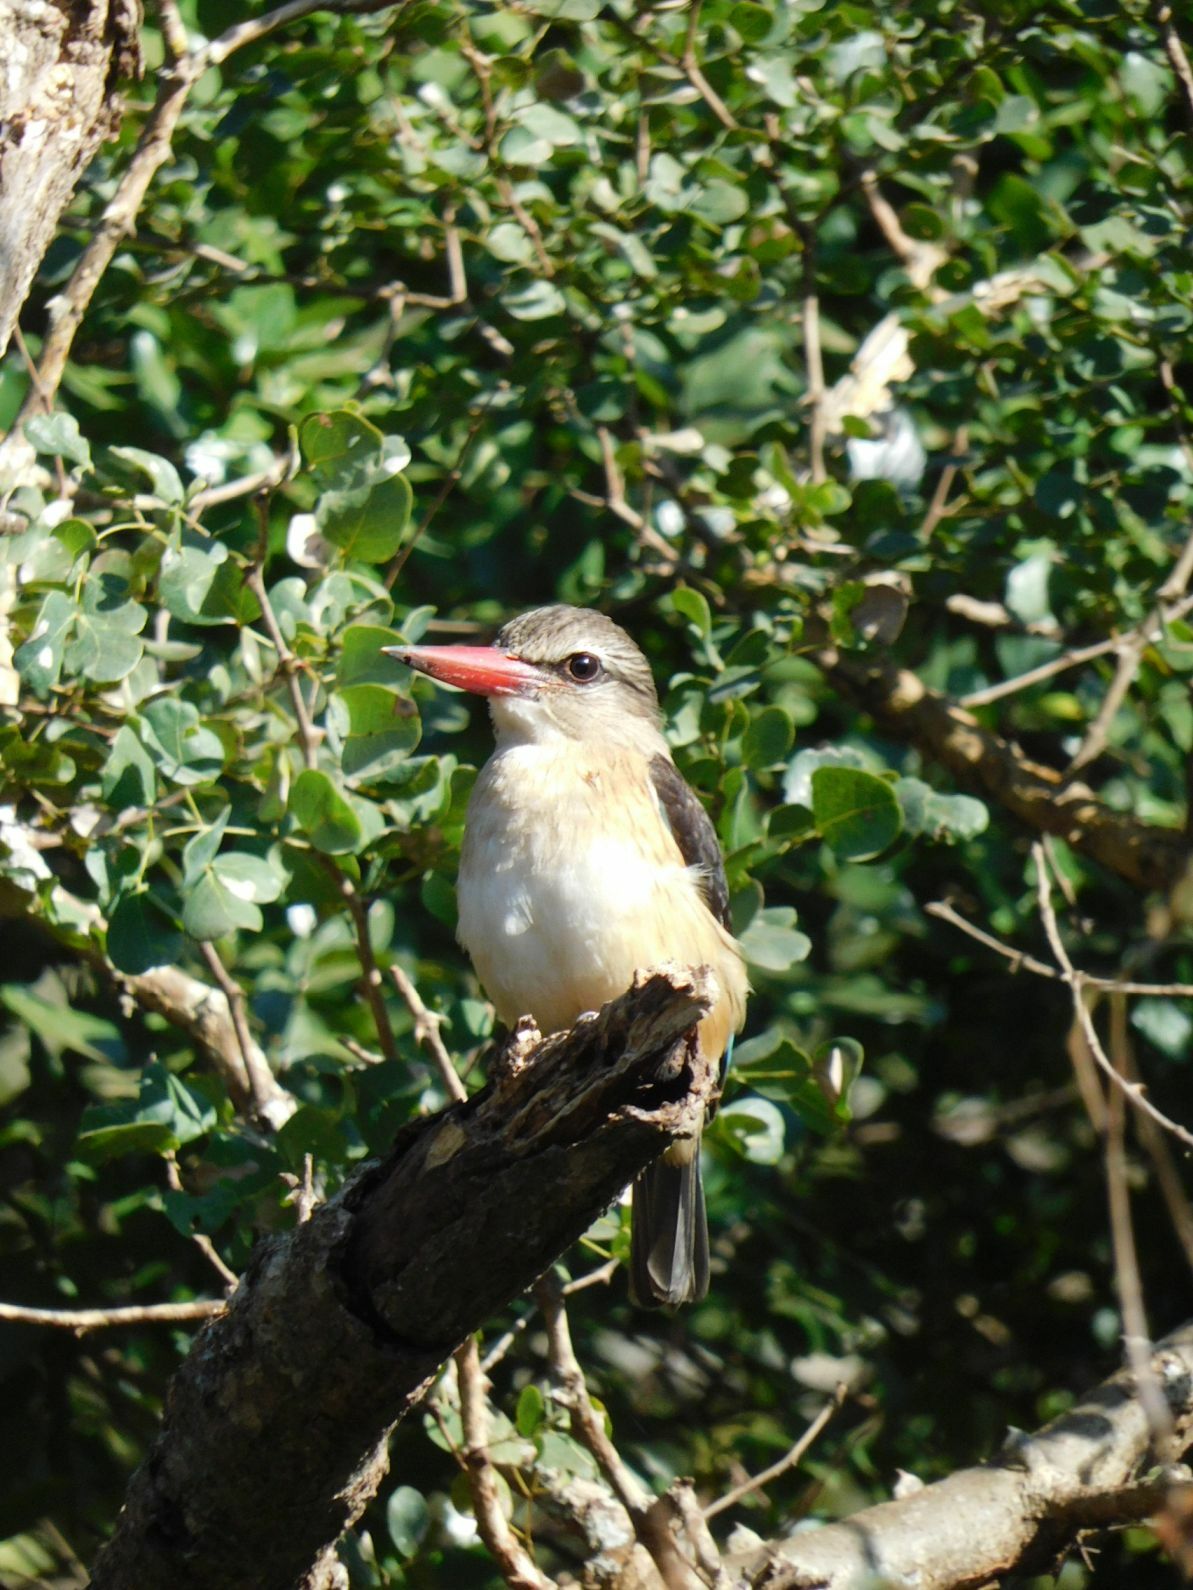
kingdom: Animalia
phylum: Chordata
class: Aves
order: Coraciiformes
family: Alcedinidae
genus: Halcyon
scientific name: Halcyon albiventris
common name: Brown-hooded kingfisher
